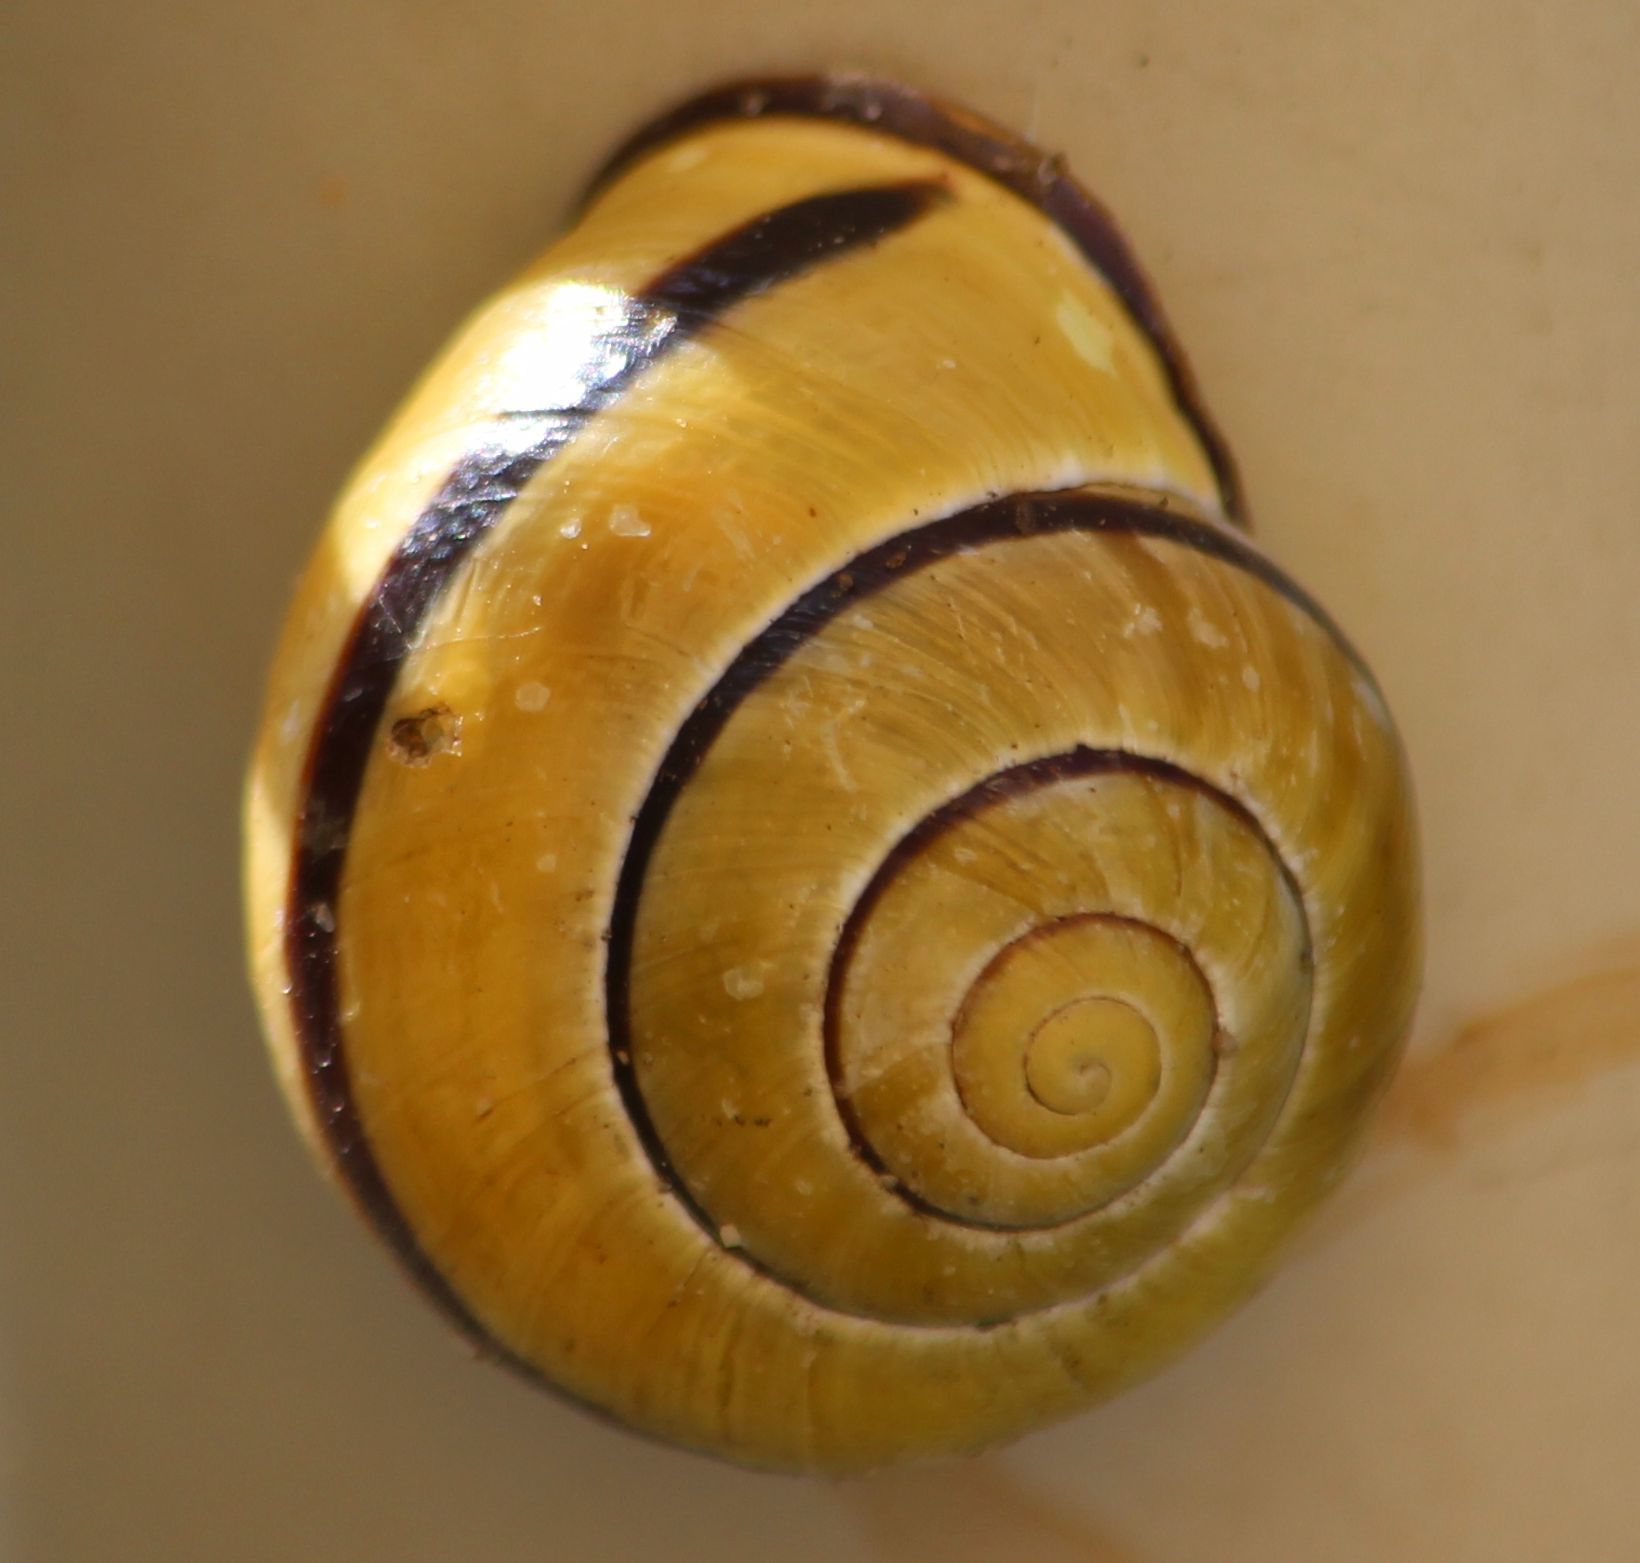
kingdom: Animalia
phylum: Mollusca
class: Gastropoda
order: Stylommatophora
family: Helicidae
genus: Cepaea
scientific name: Cepaea nemoralis
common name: Grovesnail
